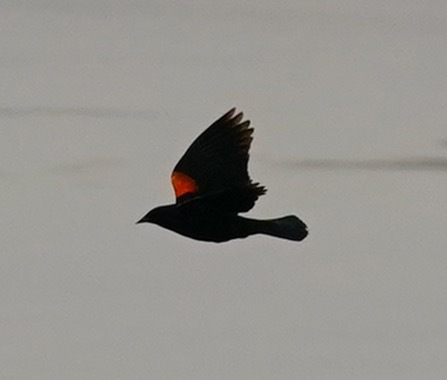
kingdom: Animalia
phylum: Chordata
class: Aves
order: Passeriformes
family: Icteridae
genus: Agelaius
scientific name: Agelaius phoeniceus
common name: Red-winged blackbird
